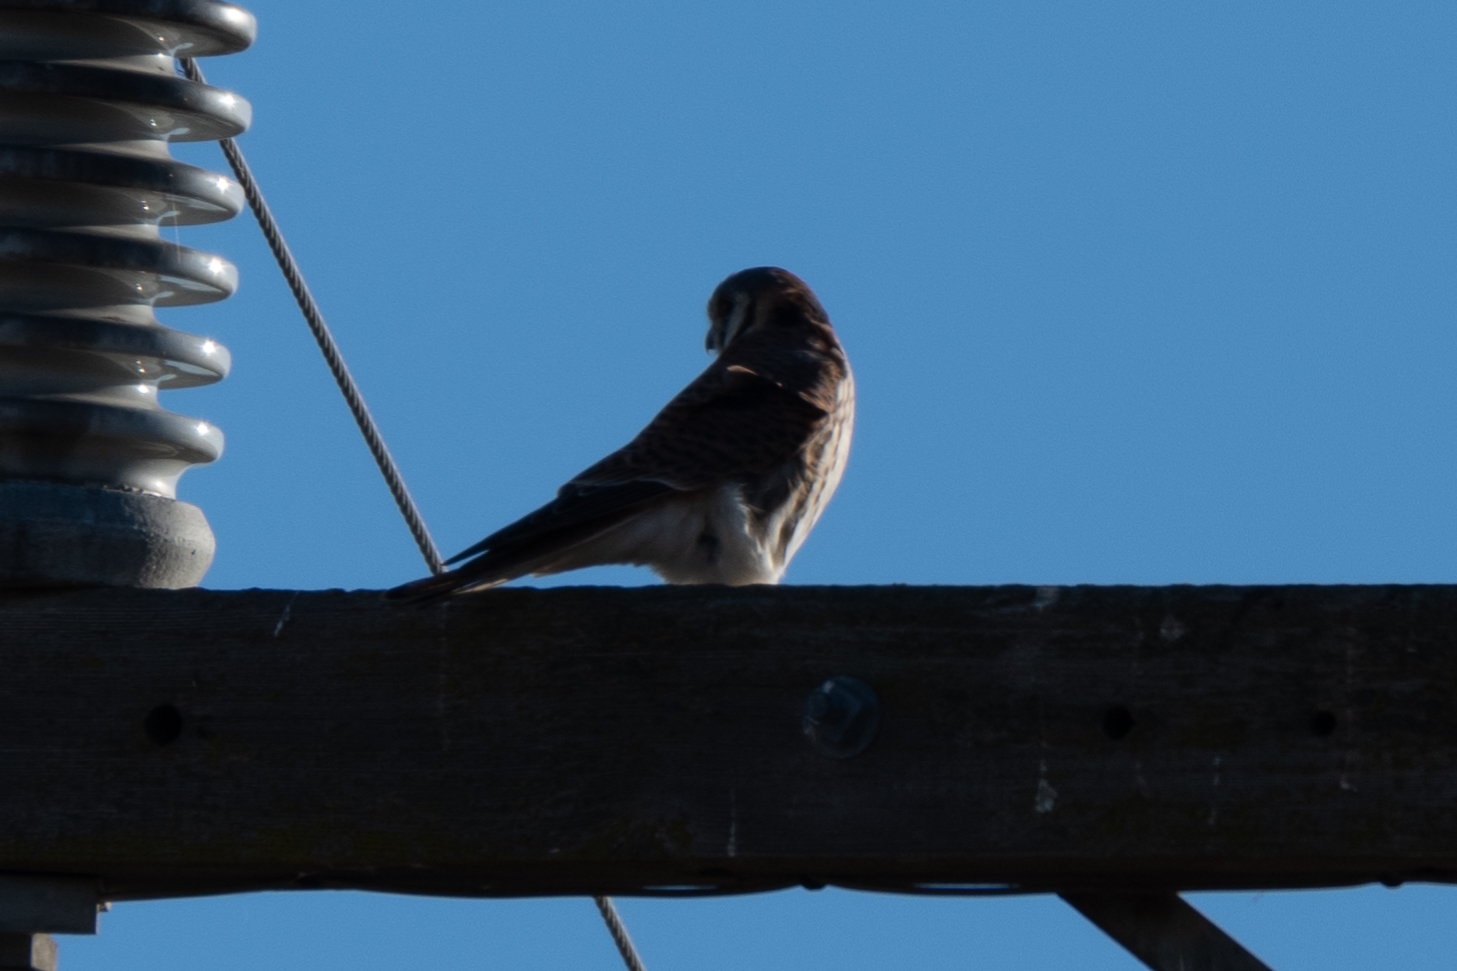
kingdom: Animalia
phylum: Chordata
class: Aves
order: Falconiformes
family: Falconidae
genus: Falco
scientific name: Falco sparverius
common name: American kestrel
